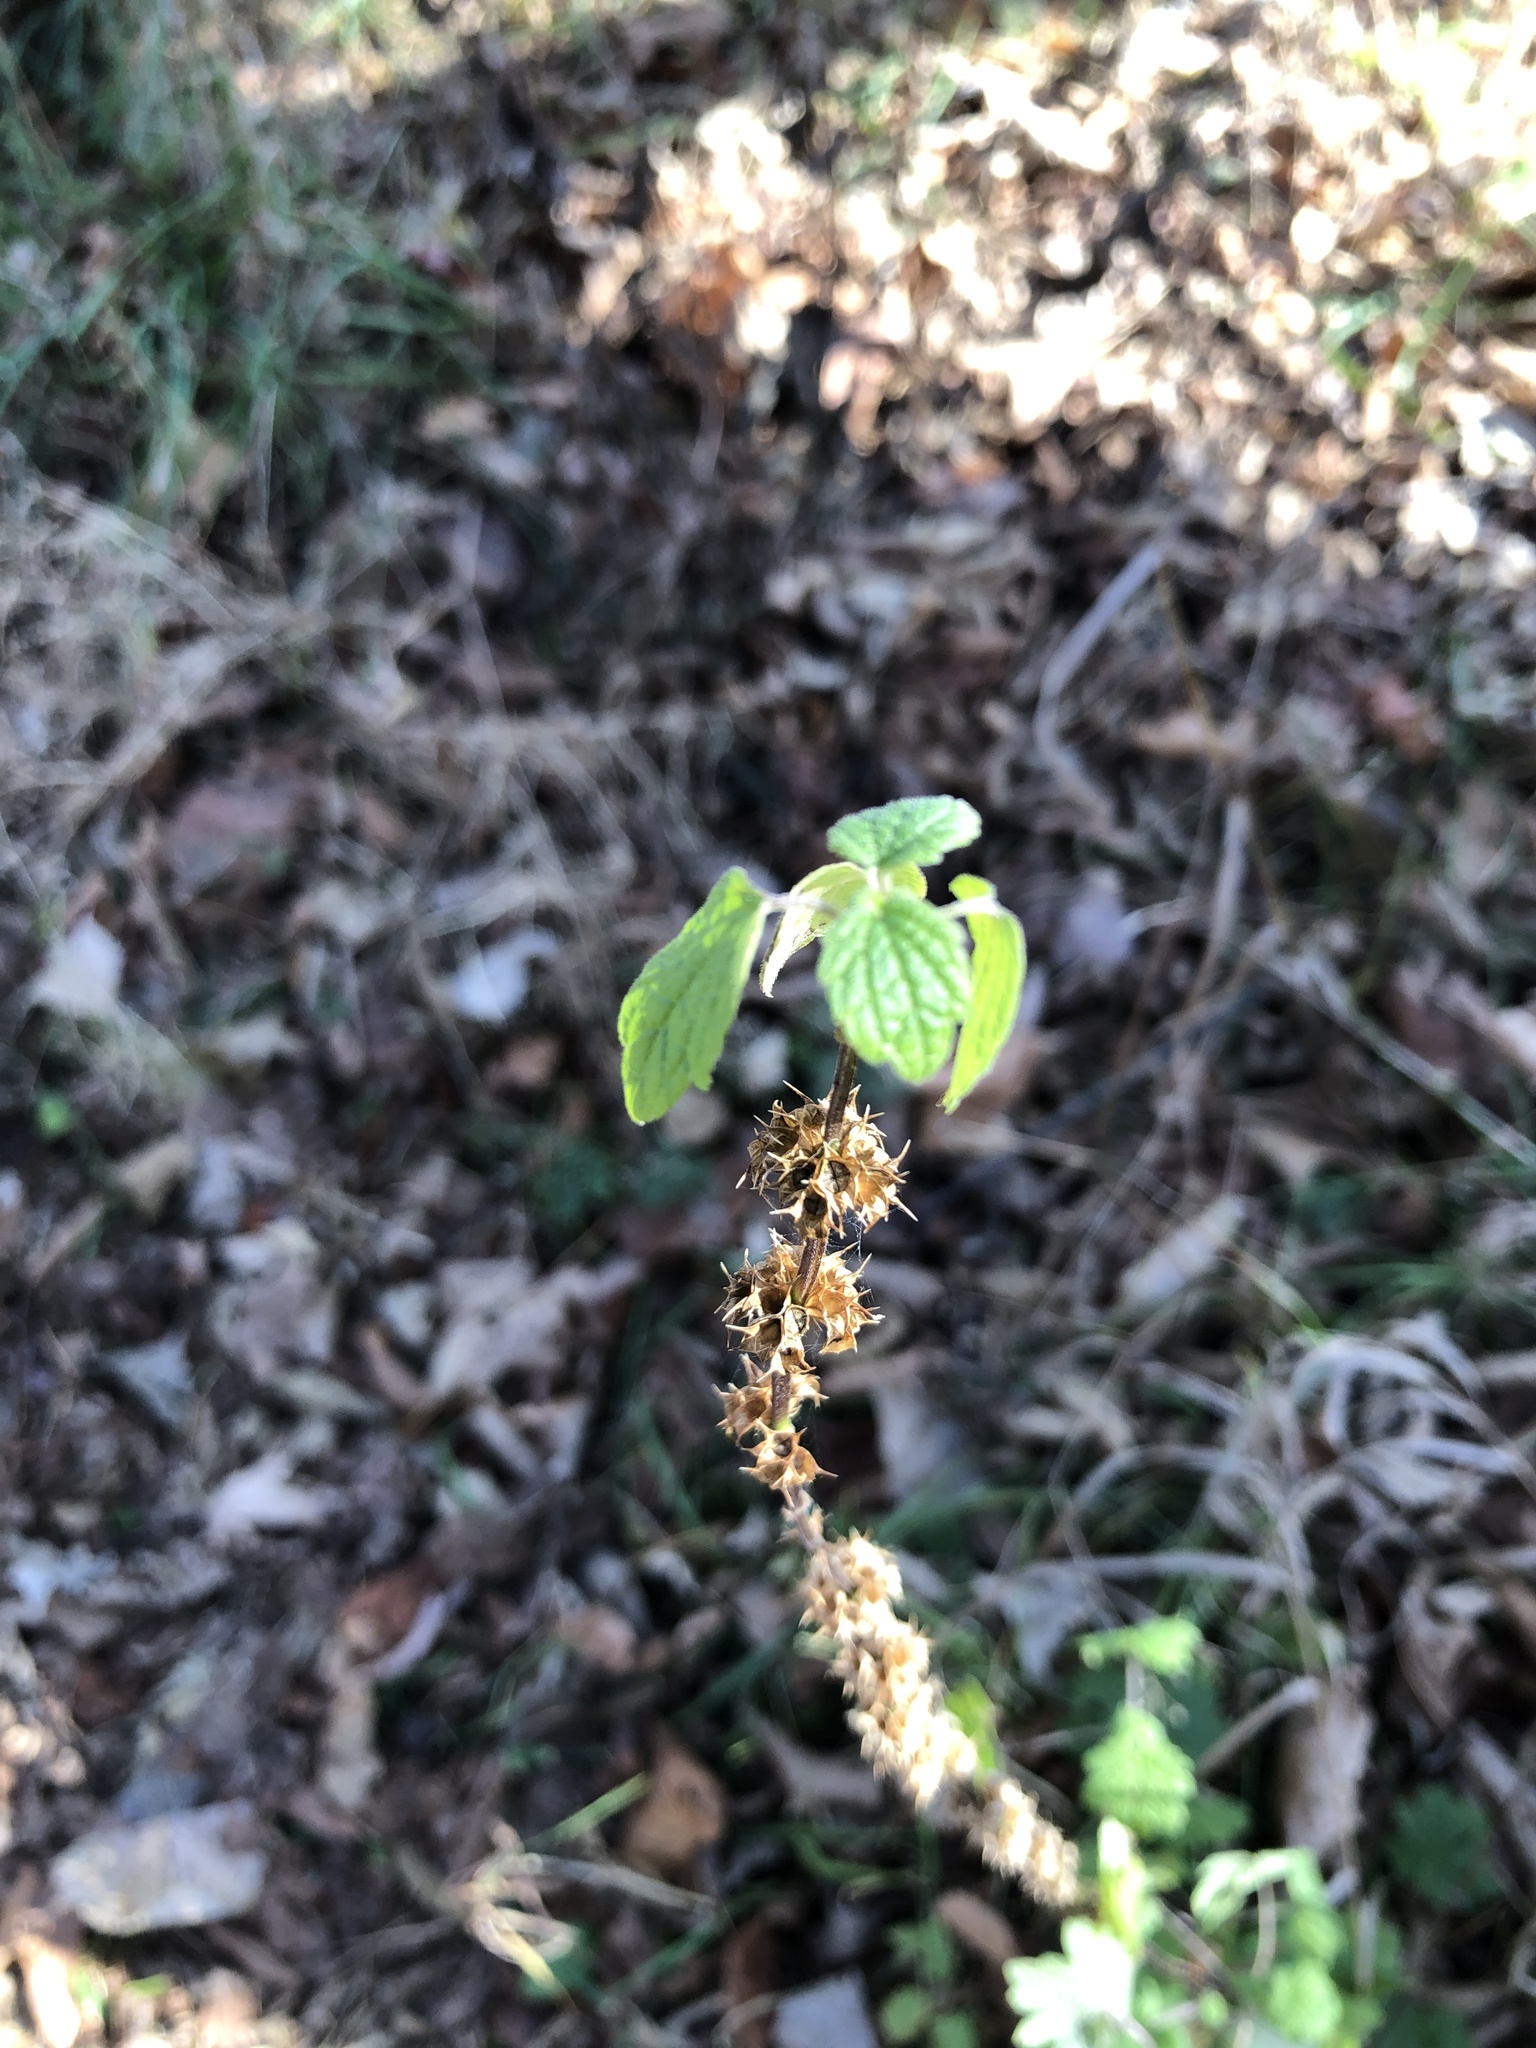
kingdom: Plantae
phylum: Tracheophyta
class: Magnoliopsida
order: Lamiales
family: Lamiaceae
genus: Leonurus
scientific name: Leonurus cardiaca
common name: Motherwort
